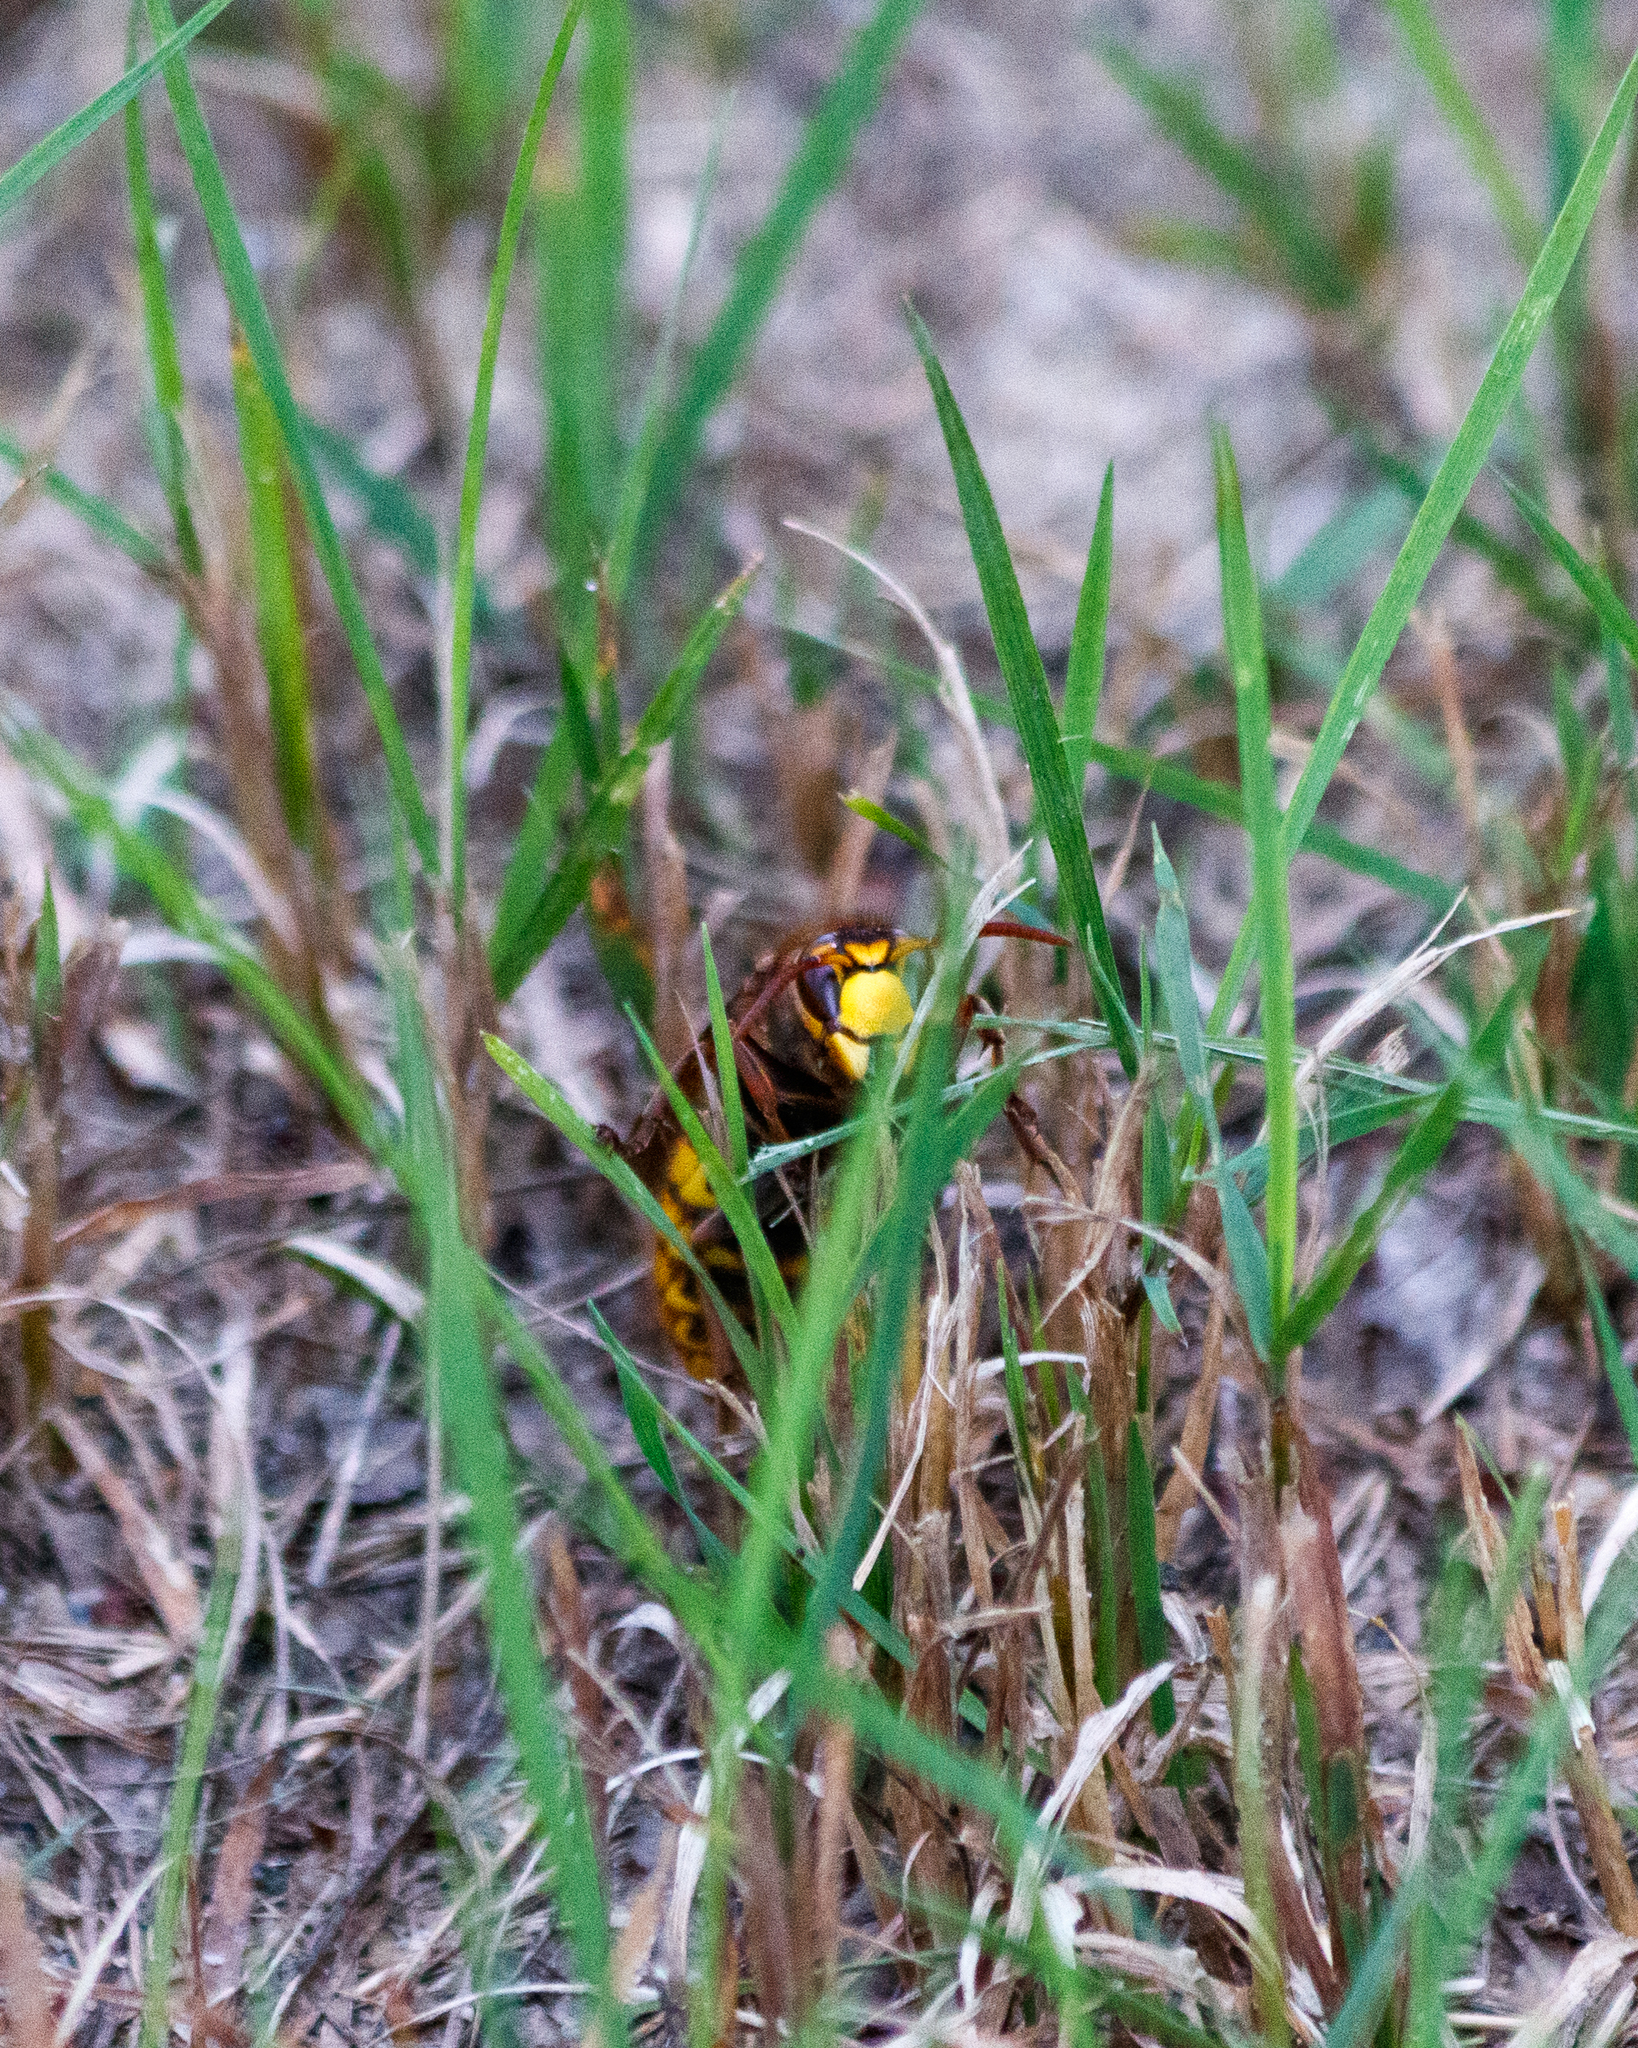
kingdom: Animalia
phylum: Arthropoda
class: Insecta
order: Hymenoptera
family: Vespidae
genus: Vespa
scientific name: Vespa crabro
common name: Hornet
